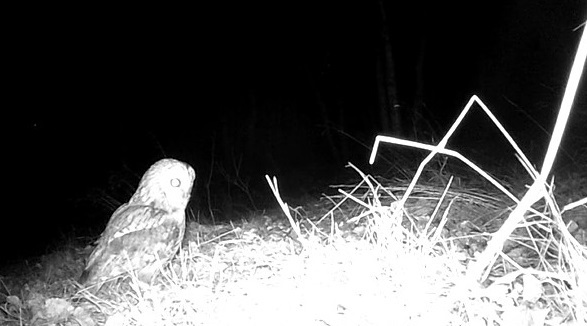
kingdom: Animalia
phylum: Chordata
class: Aves
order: Strigiformes
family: Strigidae
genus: Strix
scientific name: Strix aluco
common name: Tawny owl
